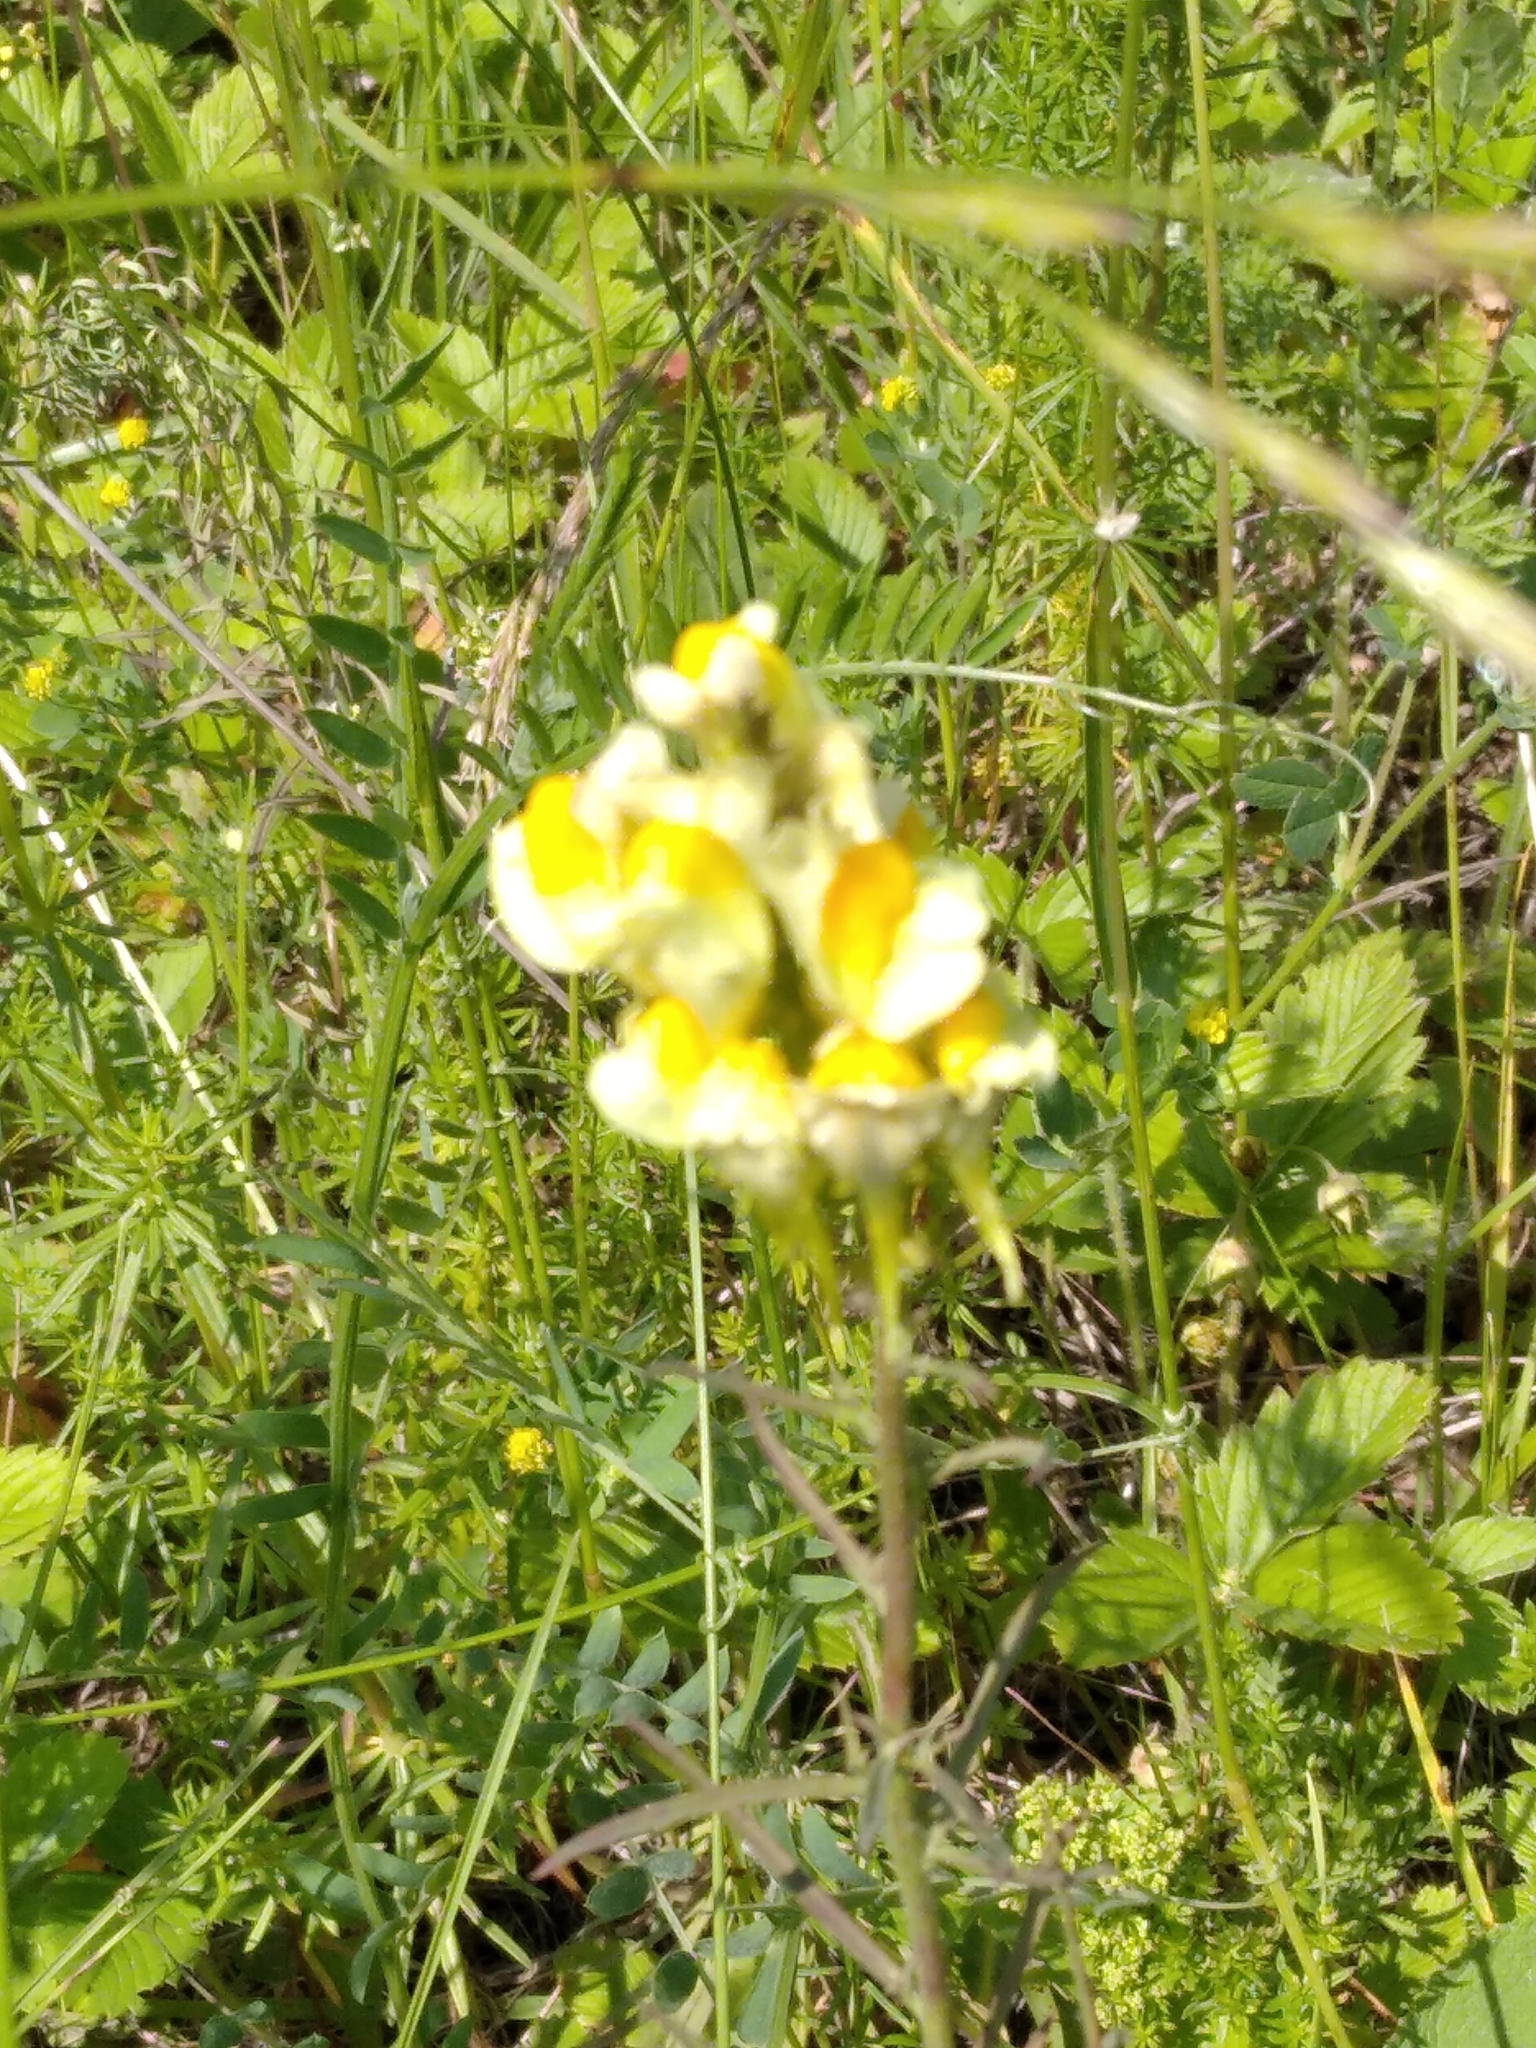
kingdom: Plantae
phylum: Tracheophyta
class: Magnoliopsida
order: Lamiales
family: Plantaginaceae
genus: Linaria
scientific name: Linaria vulgaris
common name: Butter and eggs
